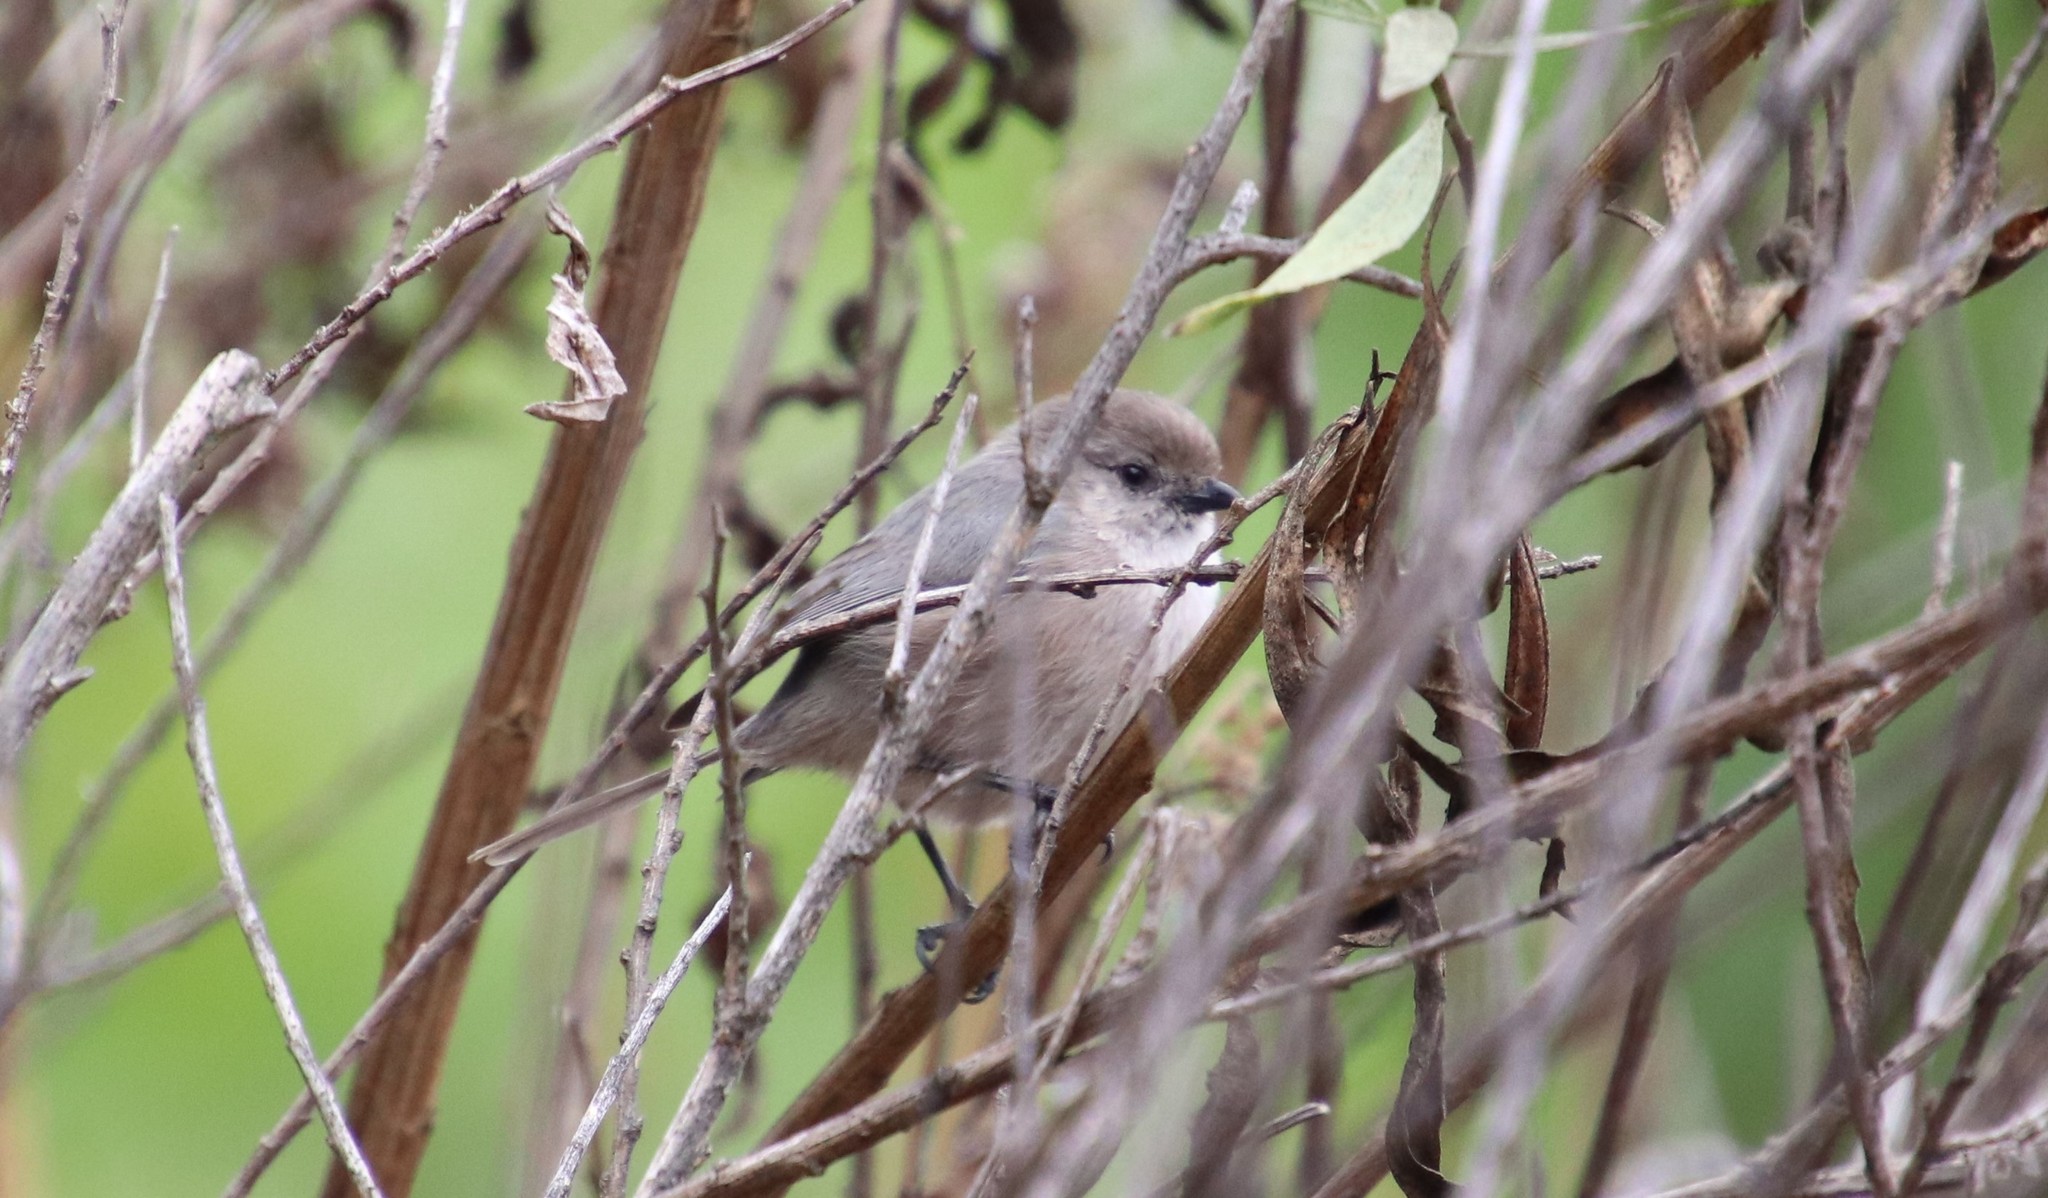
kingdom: Animalia
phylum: Chordata
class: Aves
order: Passeriformes
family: Aegithalidae
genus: Psaltriparus
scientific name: Psaltriparus minimus
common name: American bushtit
